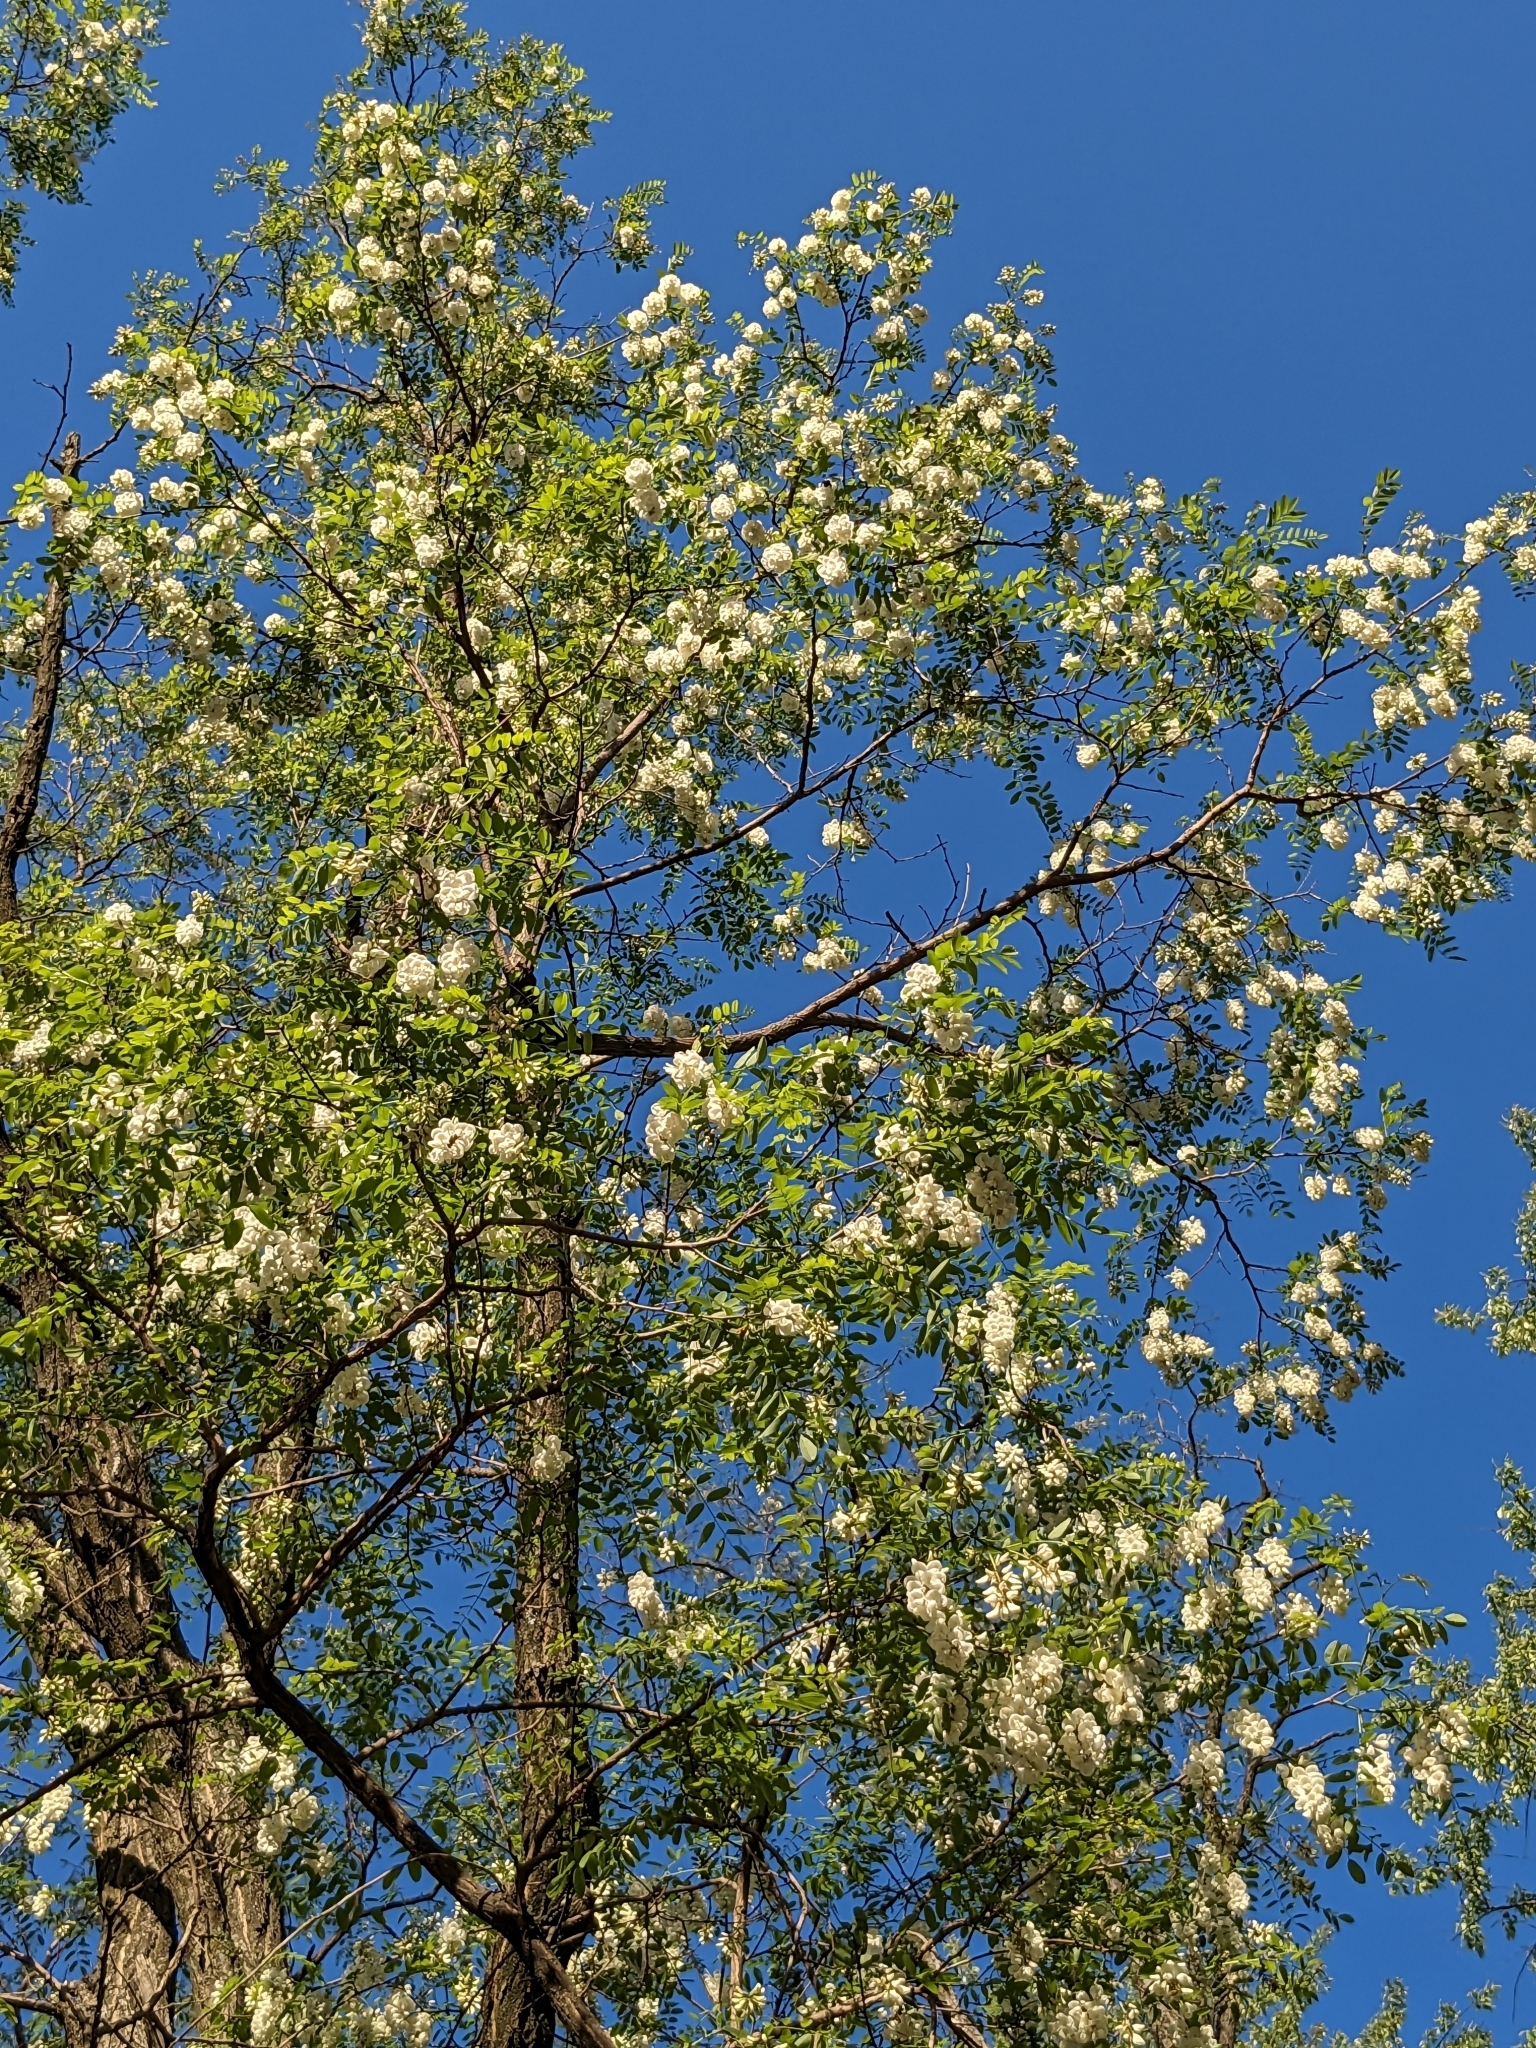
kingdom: Plantae
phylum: Tracheophyta
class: Magnoliopsida
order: Fabales
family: Fabaceae
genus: Robinia
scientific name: Robinia pseudoacacia
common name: Black locust
